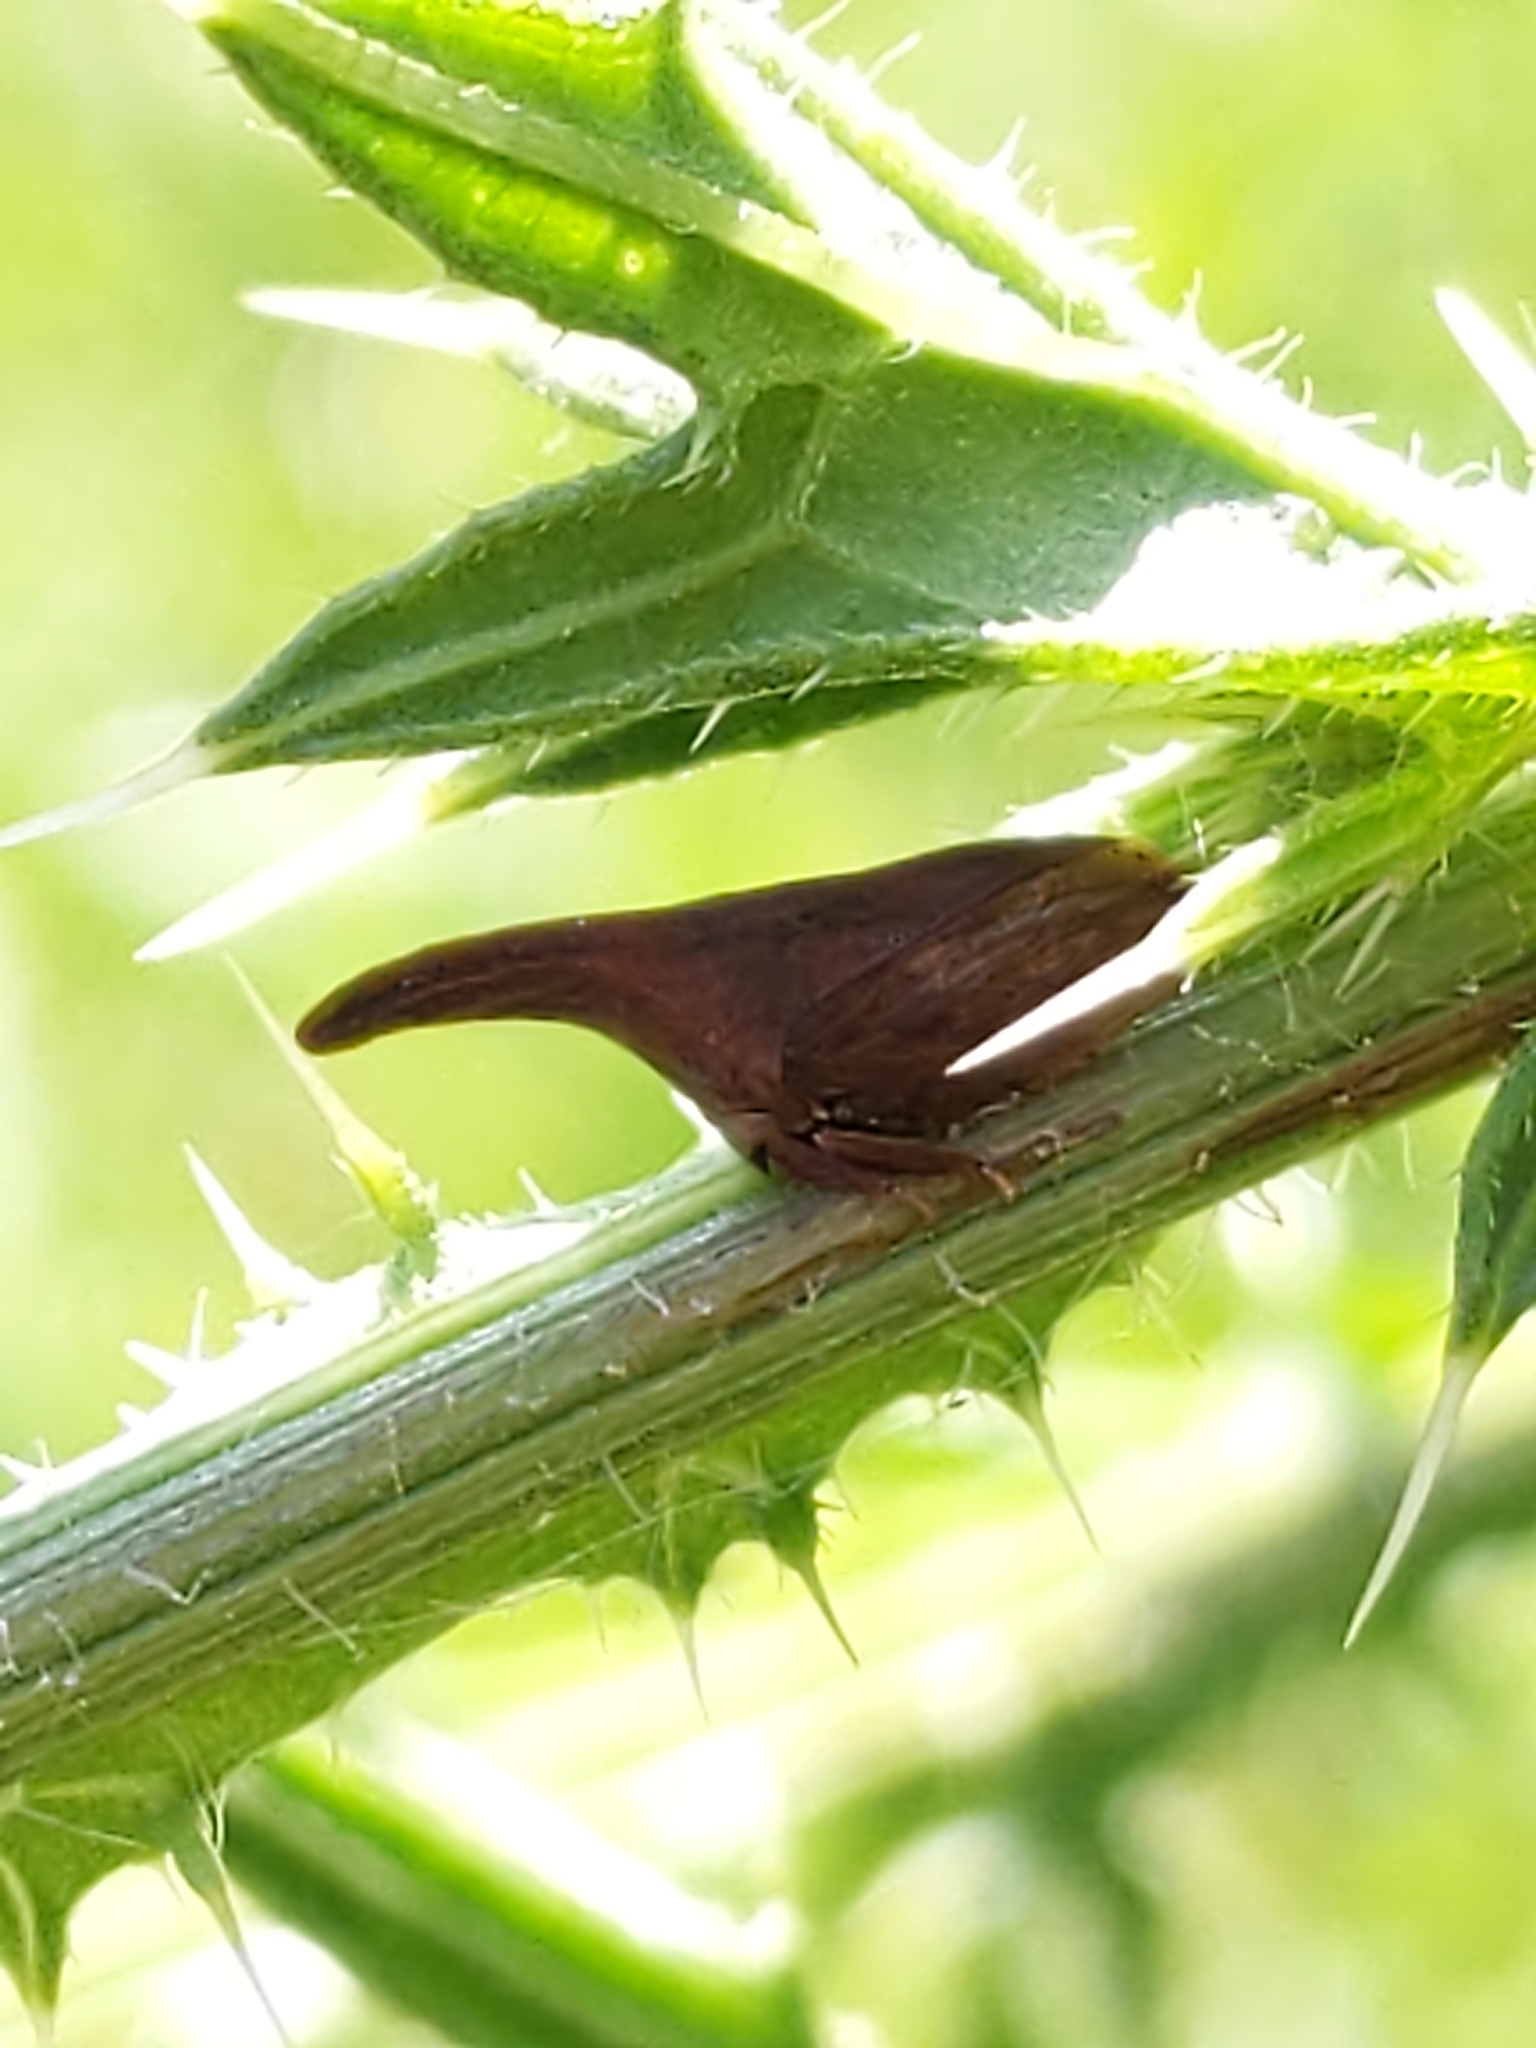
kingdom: Animalia
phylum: Arthropoda
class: Insecta
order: Hemiptera
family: Membracidae
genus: Enchenopa
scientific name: Enchenopa latipes
